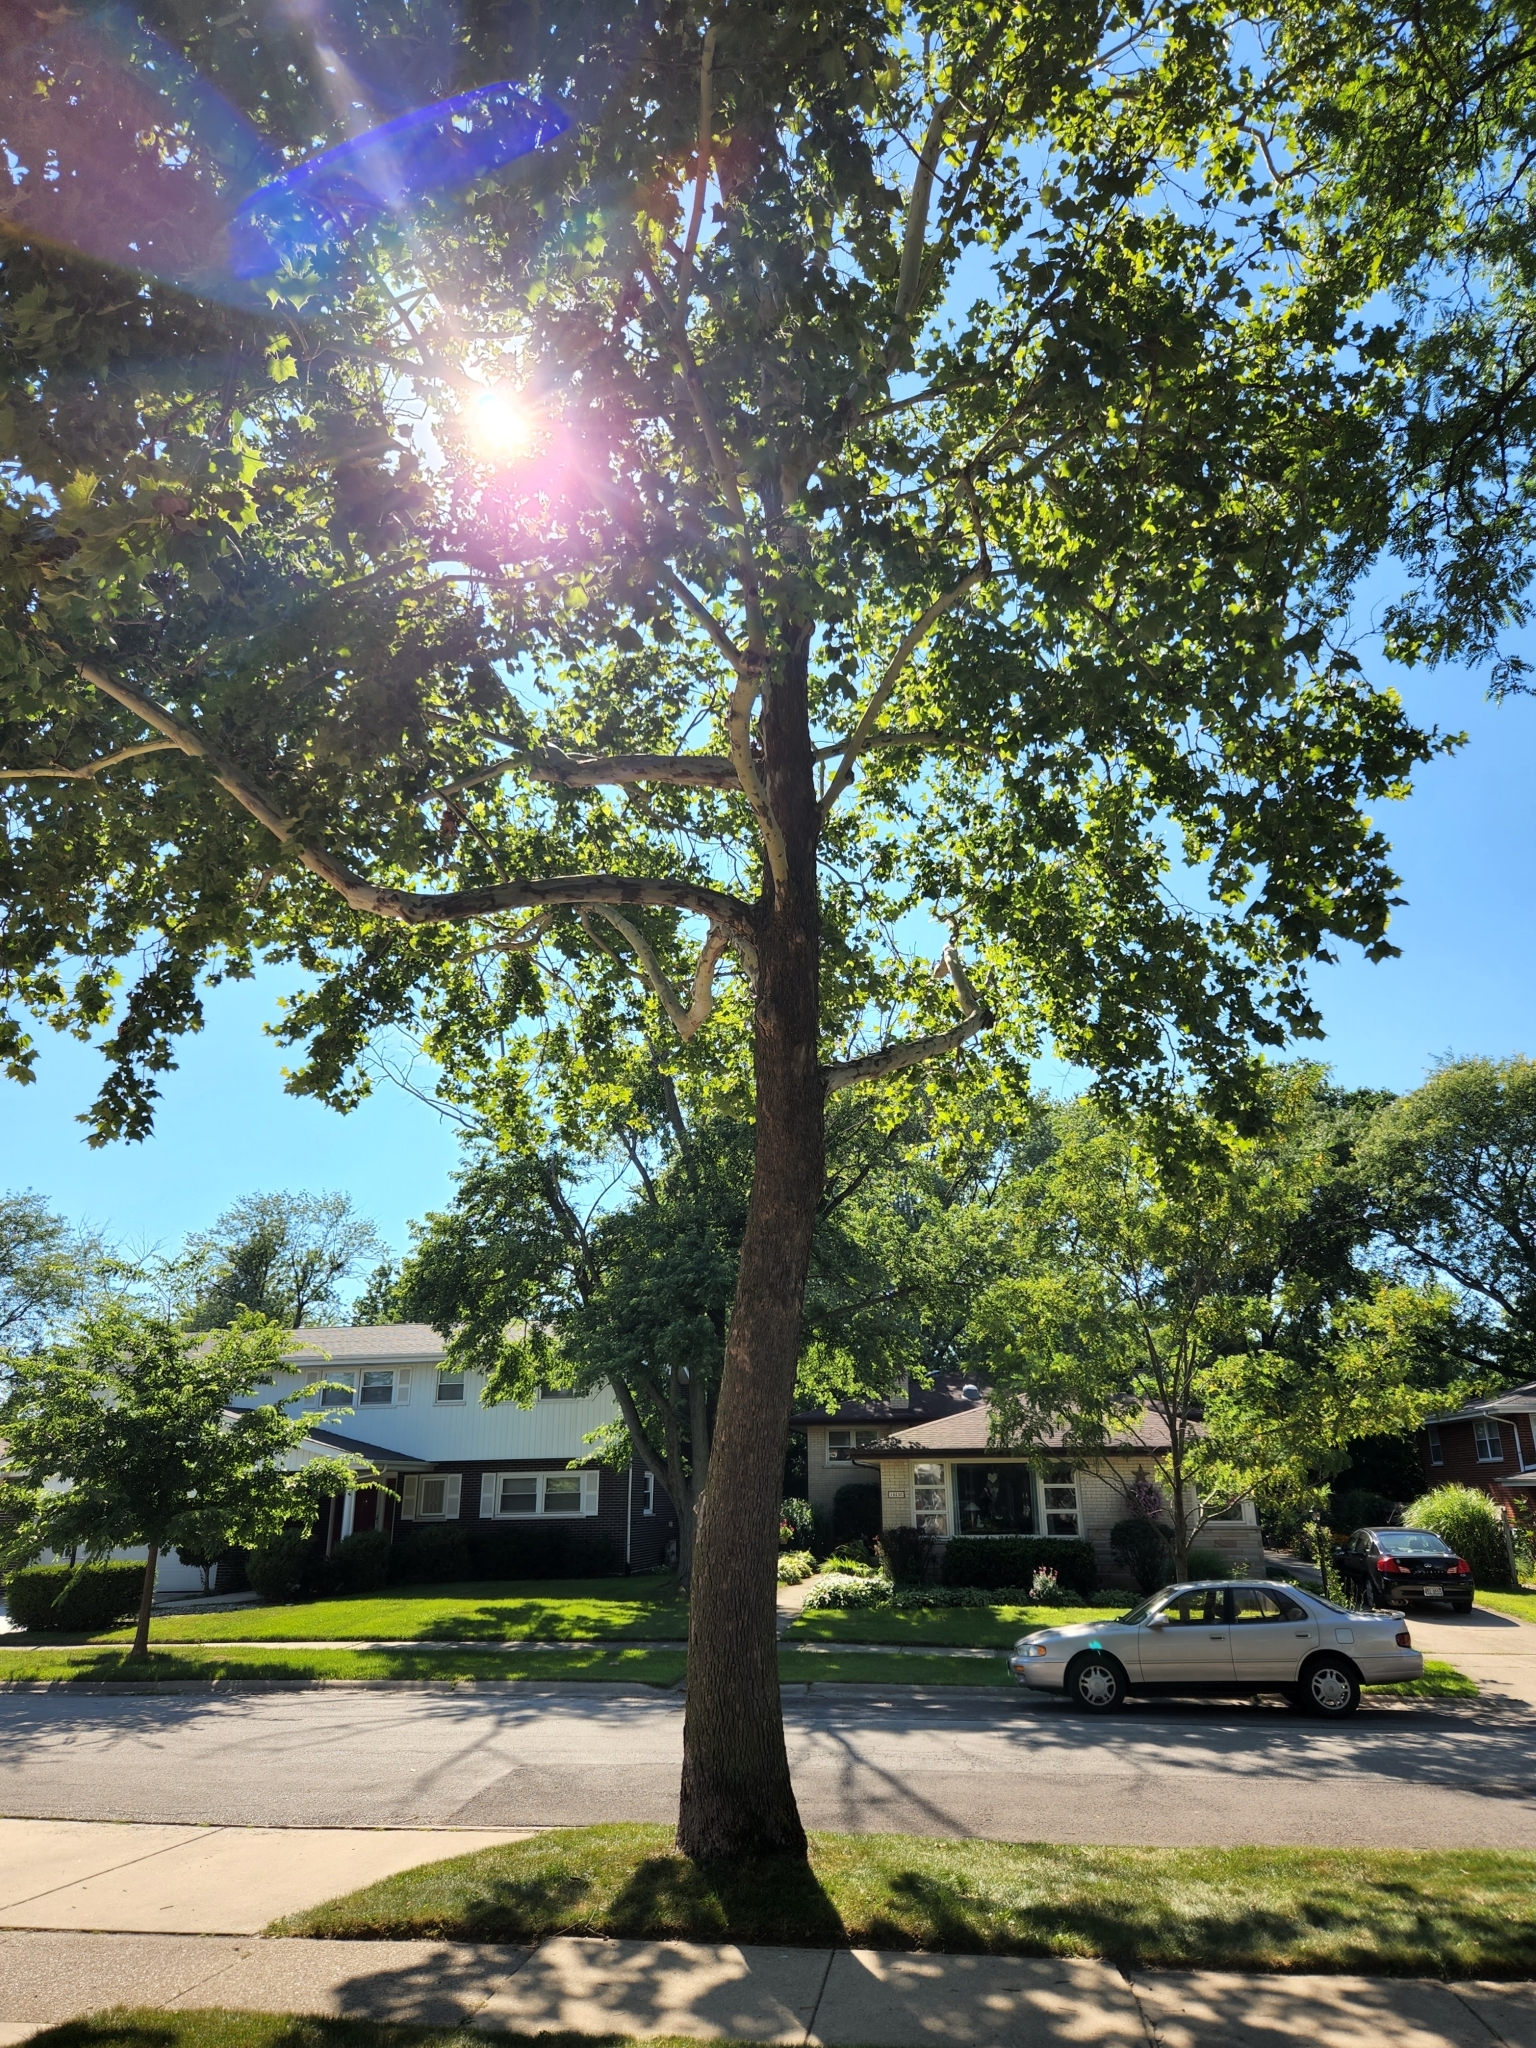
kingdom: Plantae
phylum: Tracheophyta
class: Magnoliopsida
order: Proteales
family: Platanaceae
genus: Platanus
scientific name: Platanus occidentalis
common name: American sycamore
